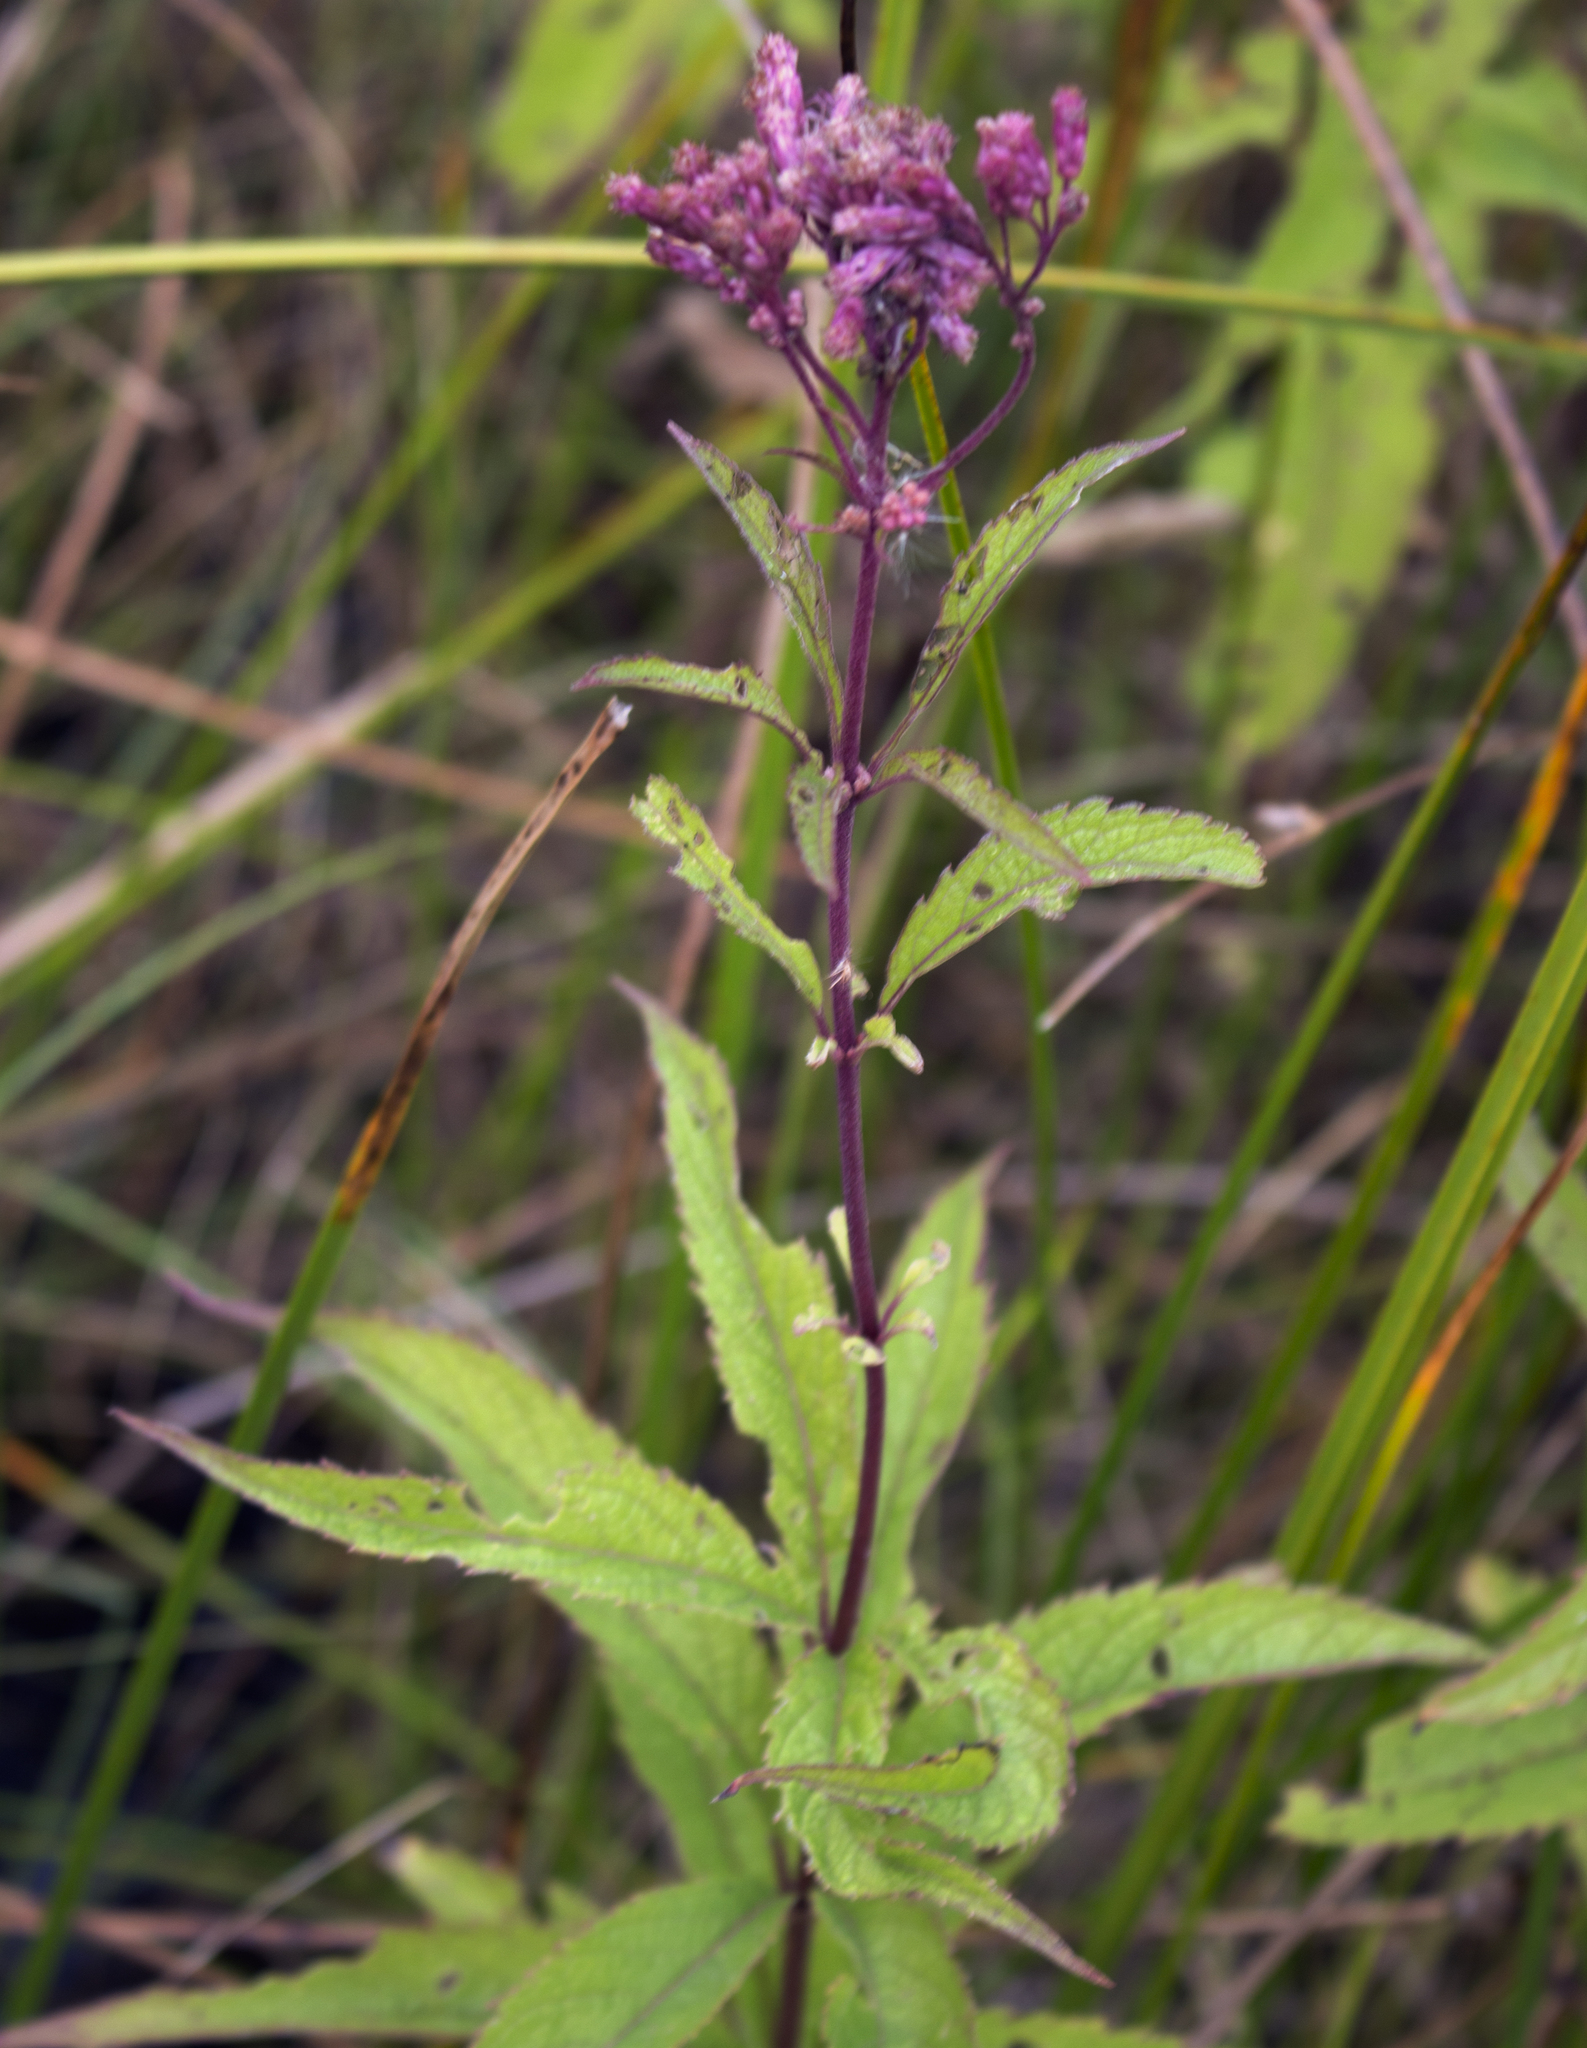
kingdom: Plantae
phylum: Tracheophyta
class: Magnoliopsida
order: Asterales
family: Asteraceae
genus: Eutrochium
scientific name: Eutrochium maculatum
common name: Spotted joe pye weed
